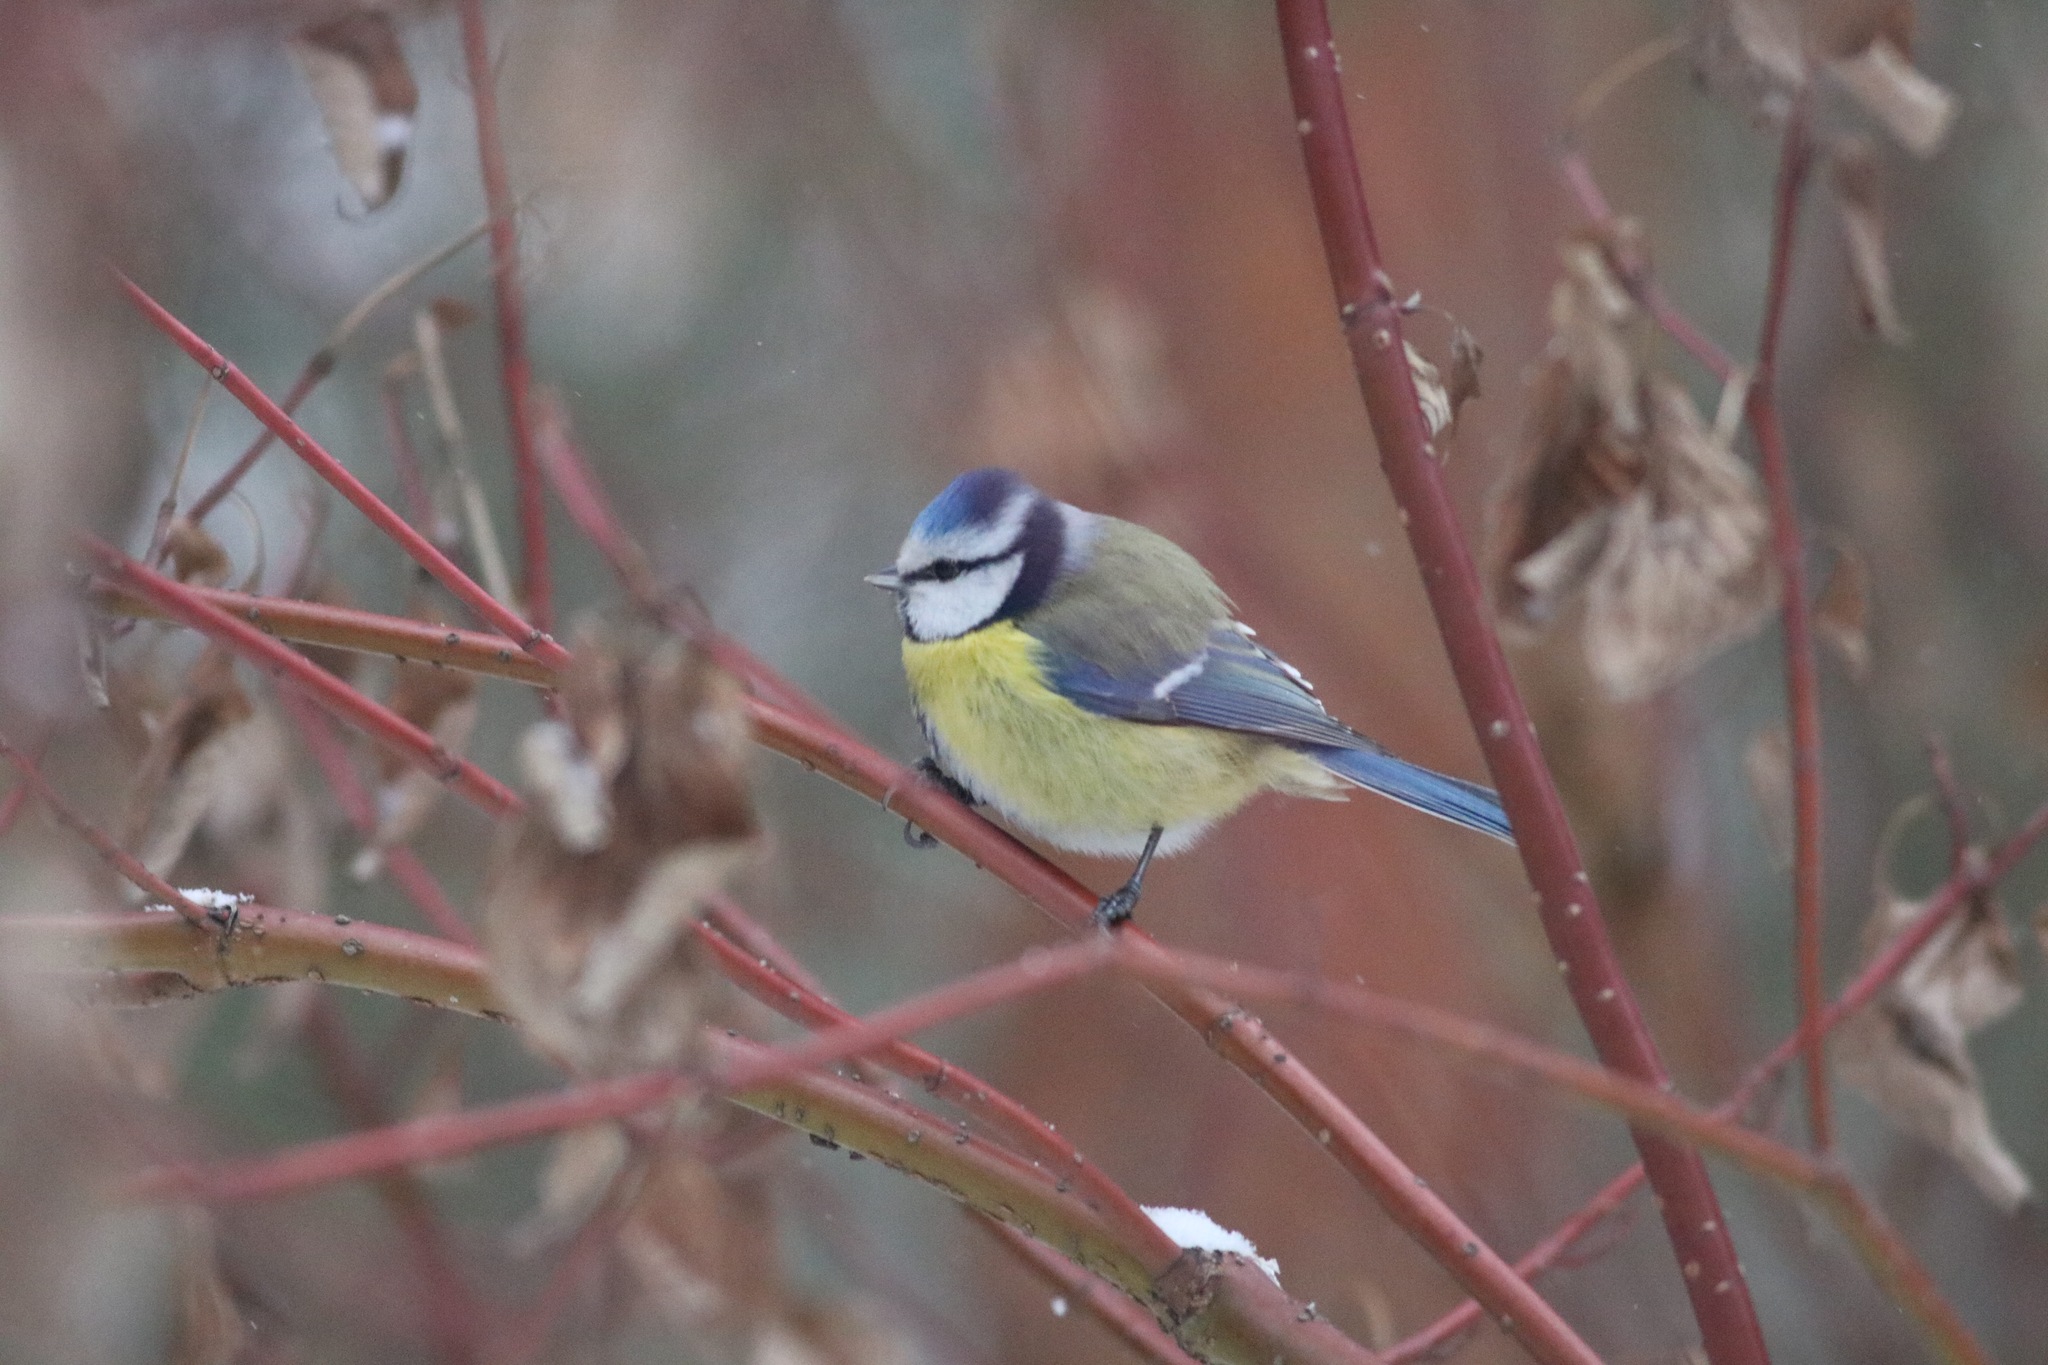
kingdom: Animalia
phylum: Chordata
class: Aves
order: Passeriformes
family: Paridae
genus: Cyanistes
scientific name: Cyanistes caeruleus
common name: Eurasian blue tit
